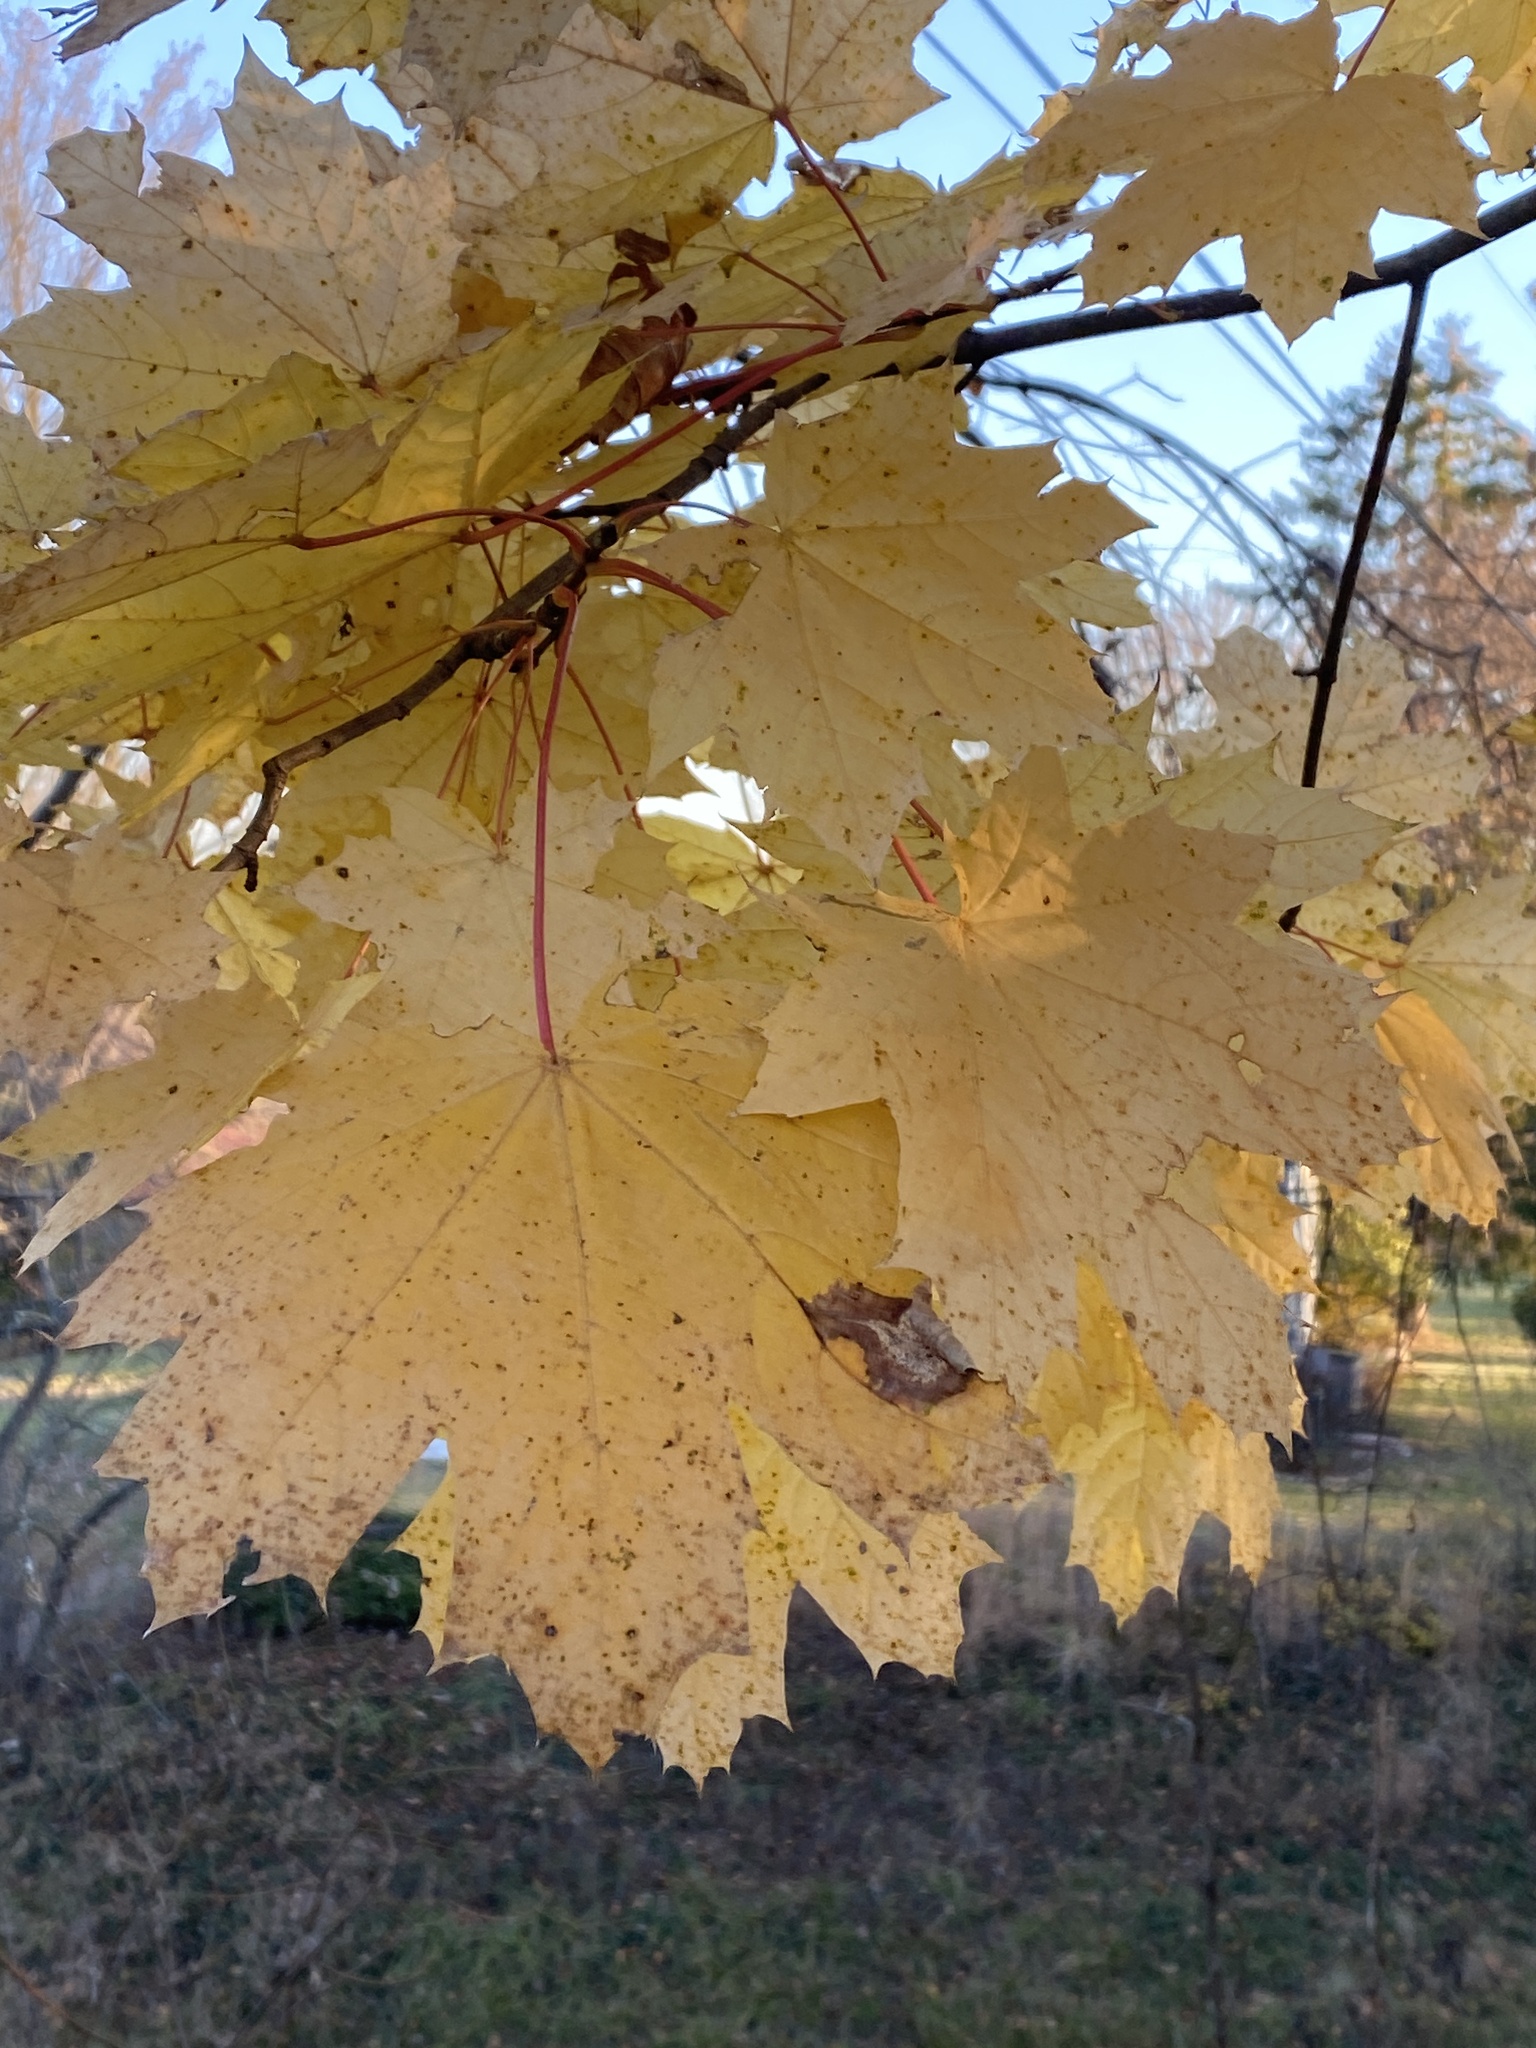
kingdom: Plantae
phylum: Tracheophyta
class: Magnoliopsida
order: Sapindales
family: Sapindaceae
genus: Acer
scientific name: Acer platanoides
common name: Norway maple
